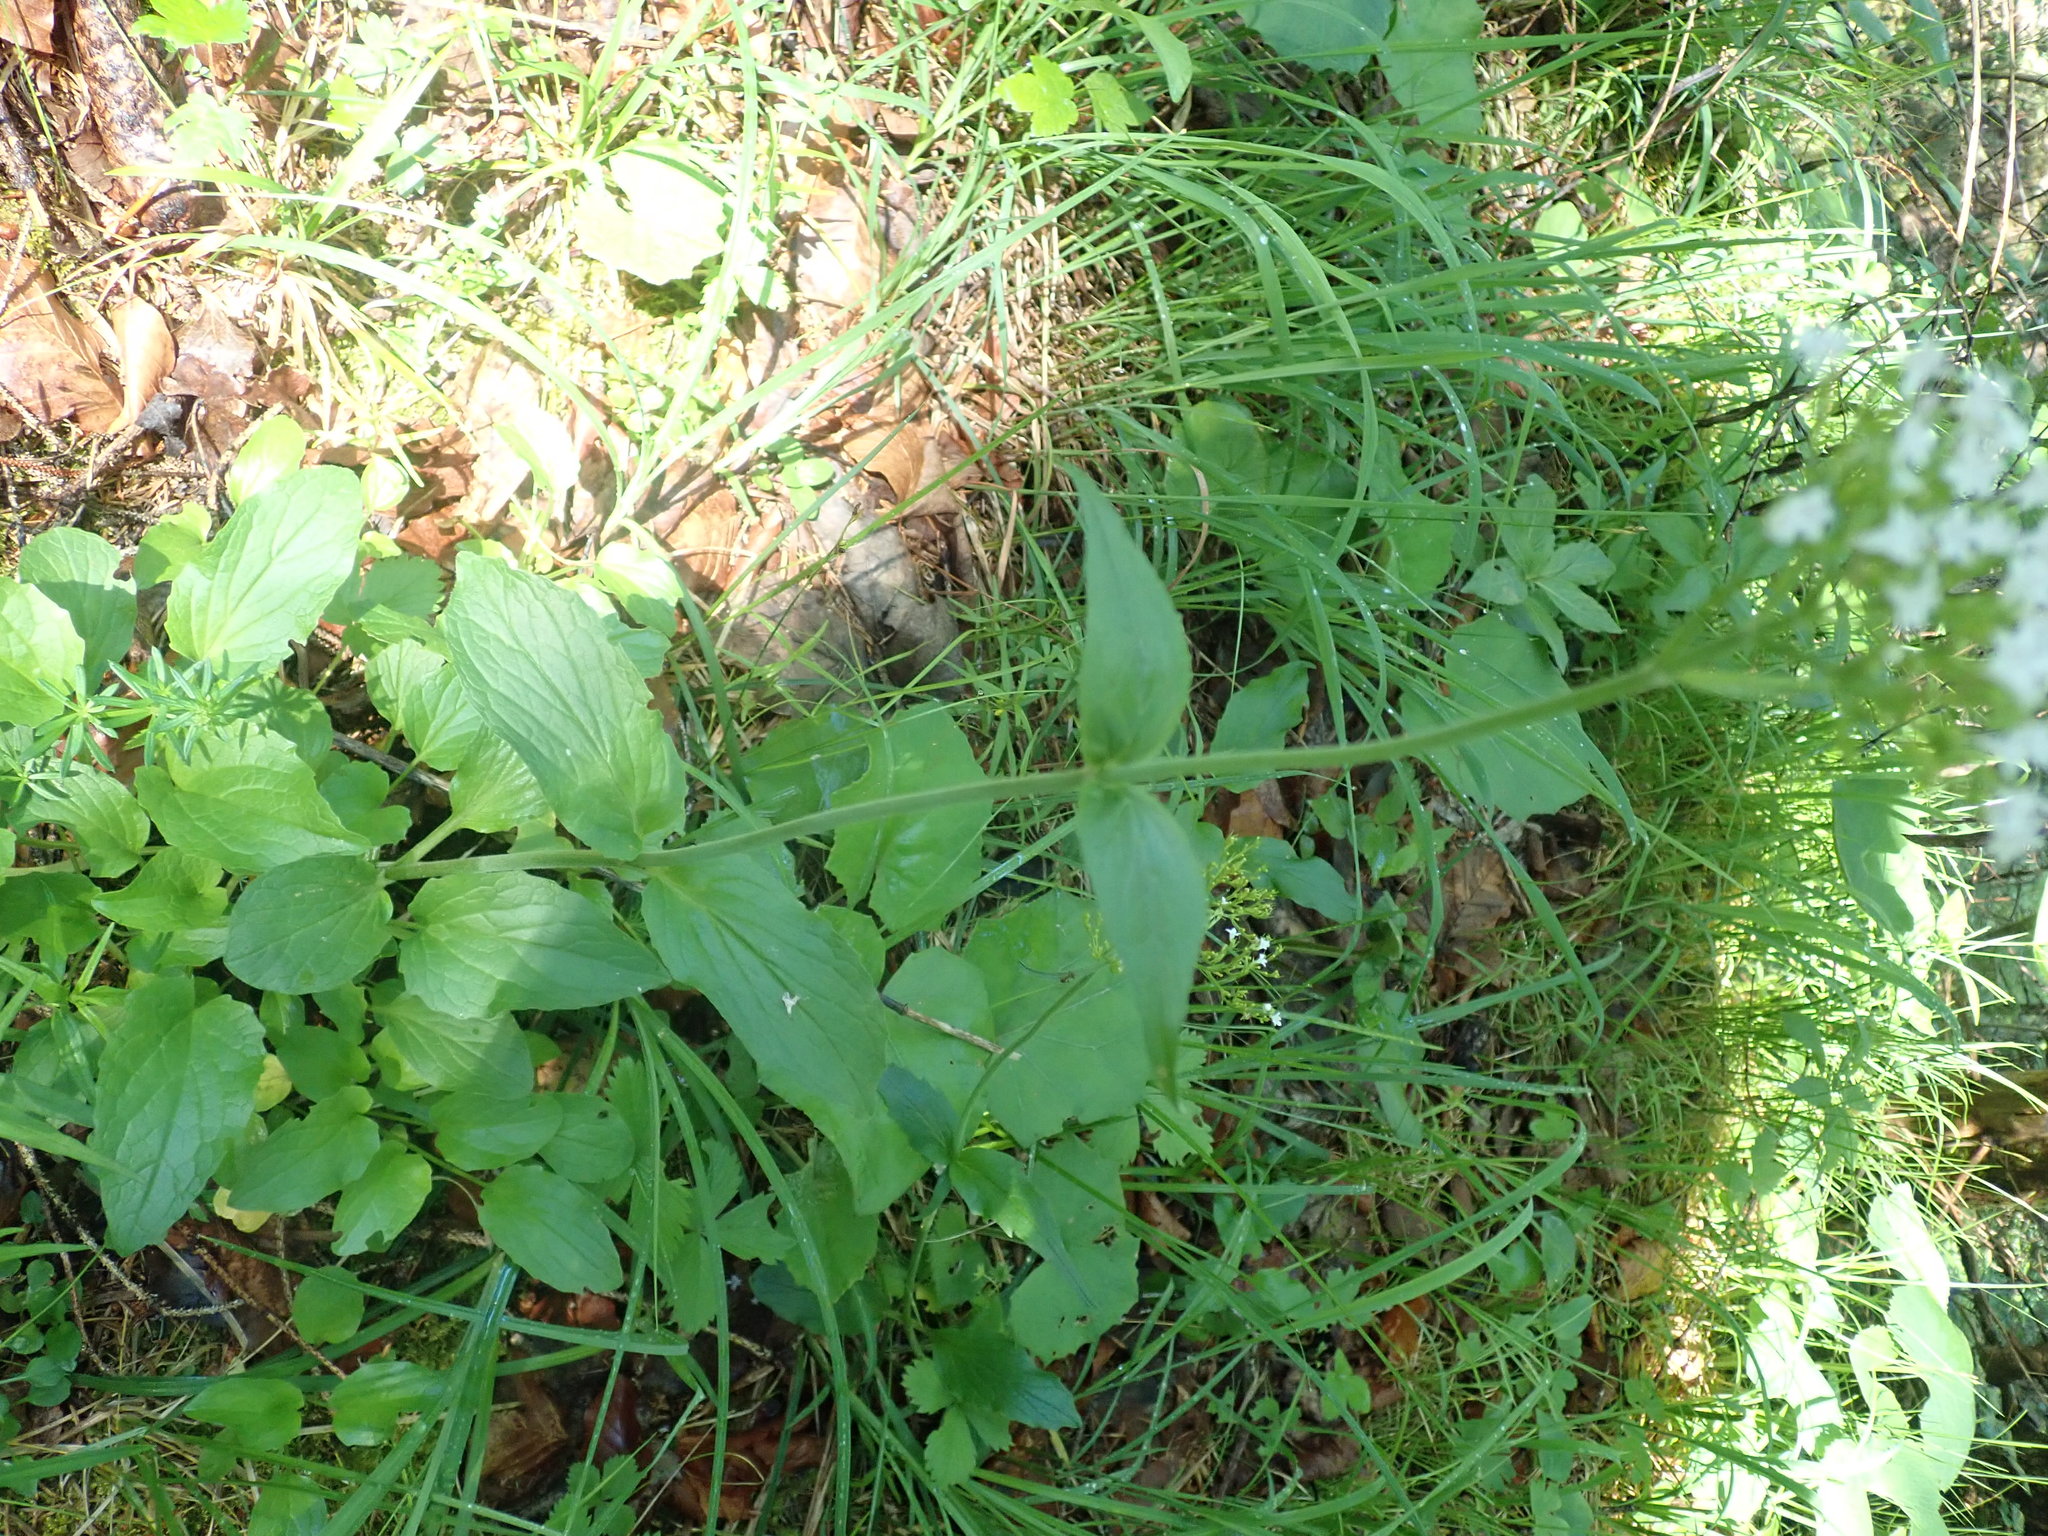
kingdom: Plantae
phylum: Tracheophyta
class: Magnoliopsida
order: Dipsacales
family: Caprifoliaceae
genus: Valeriana
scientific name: Valeriana montana
